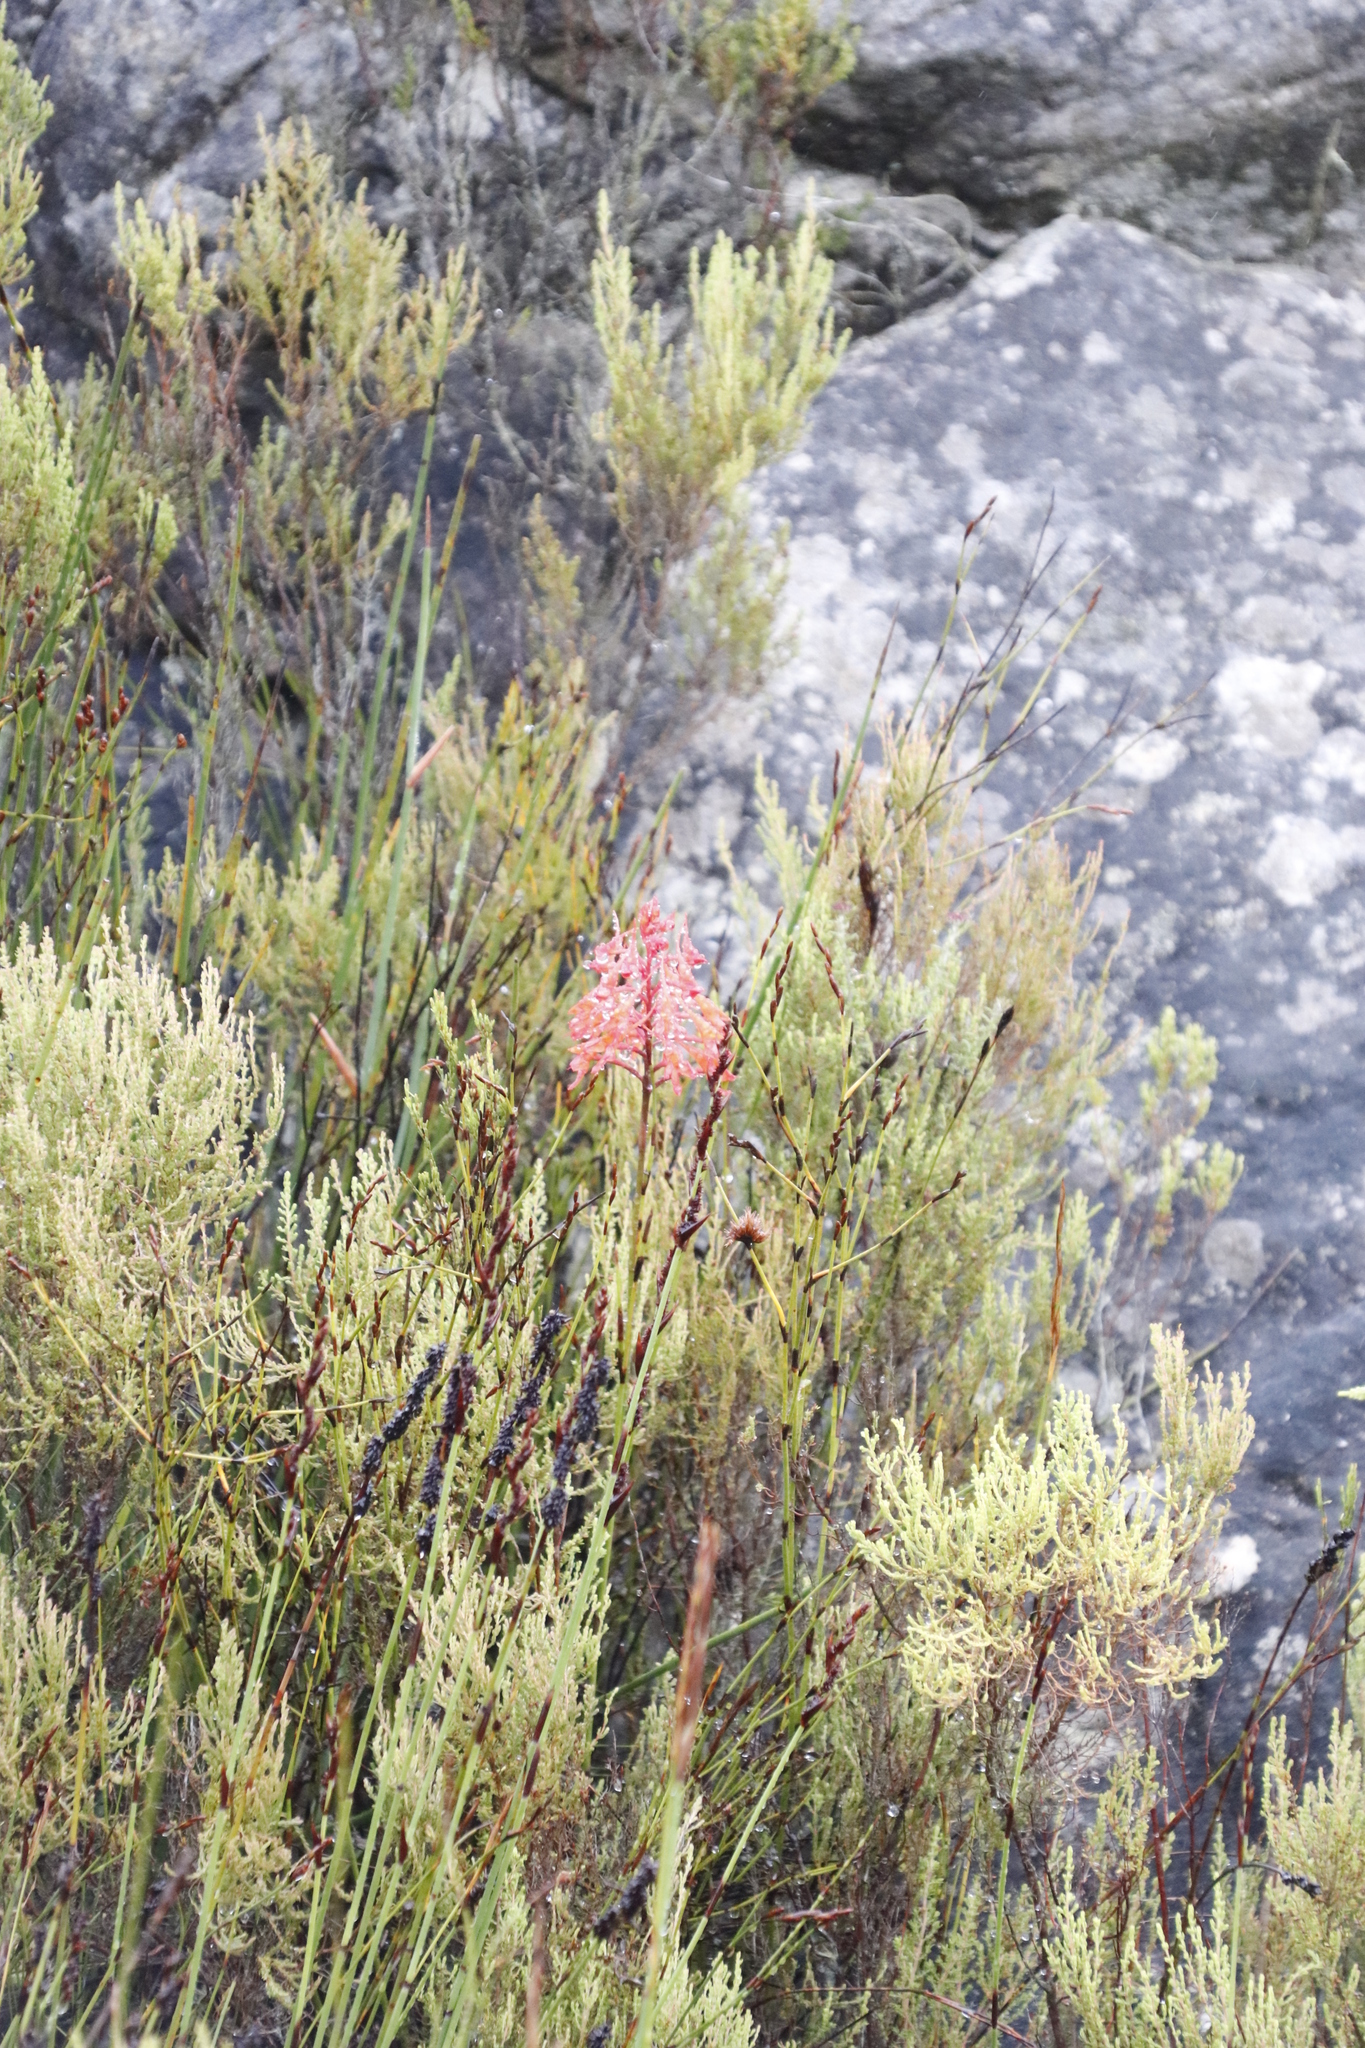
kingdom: Plantae
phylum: Tracheophyta
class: Liliopsida
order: Asparagales
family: Orchidaceae
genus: Disa
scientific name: Disa ferruginea
